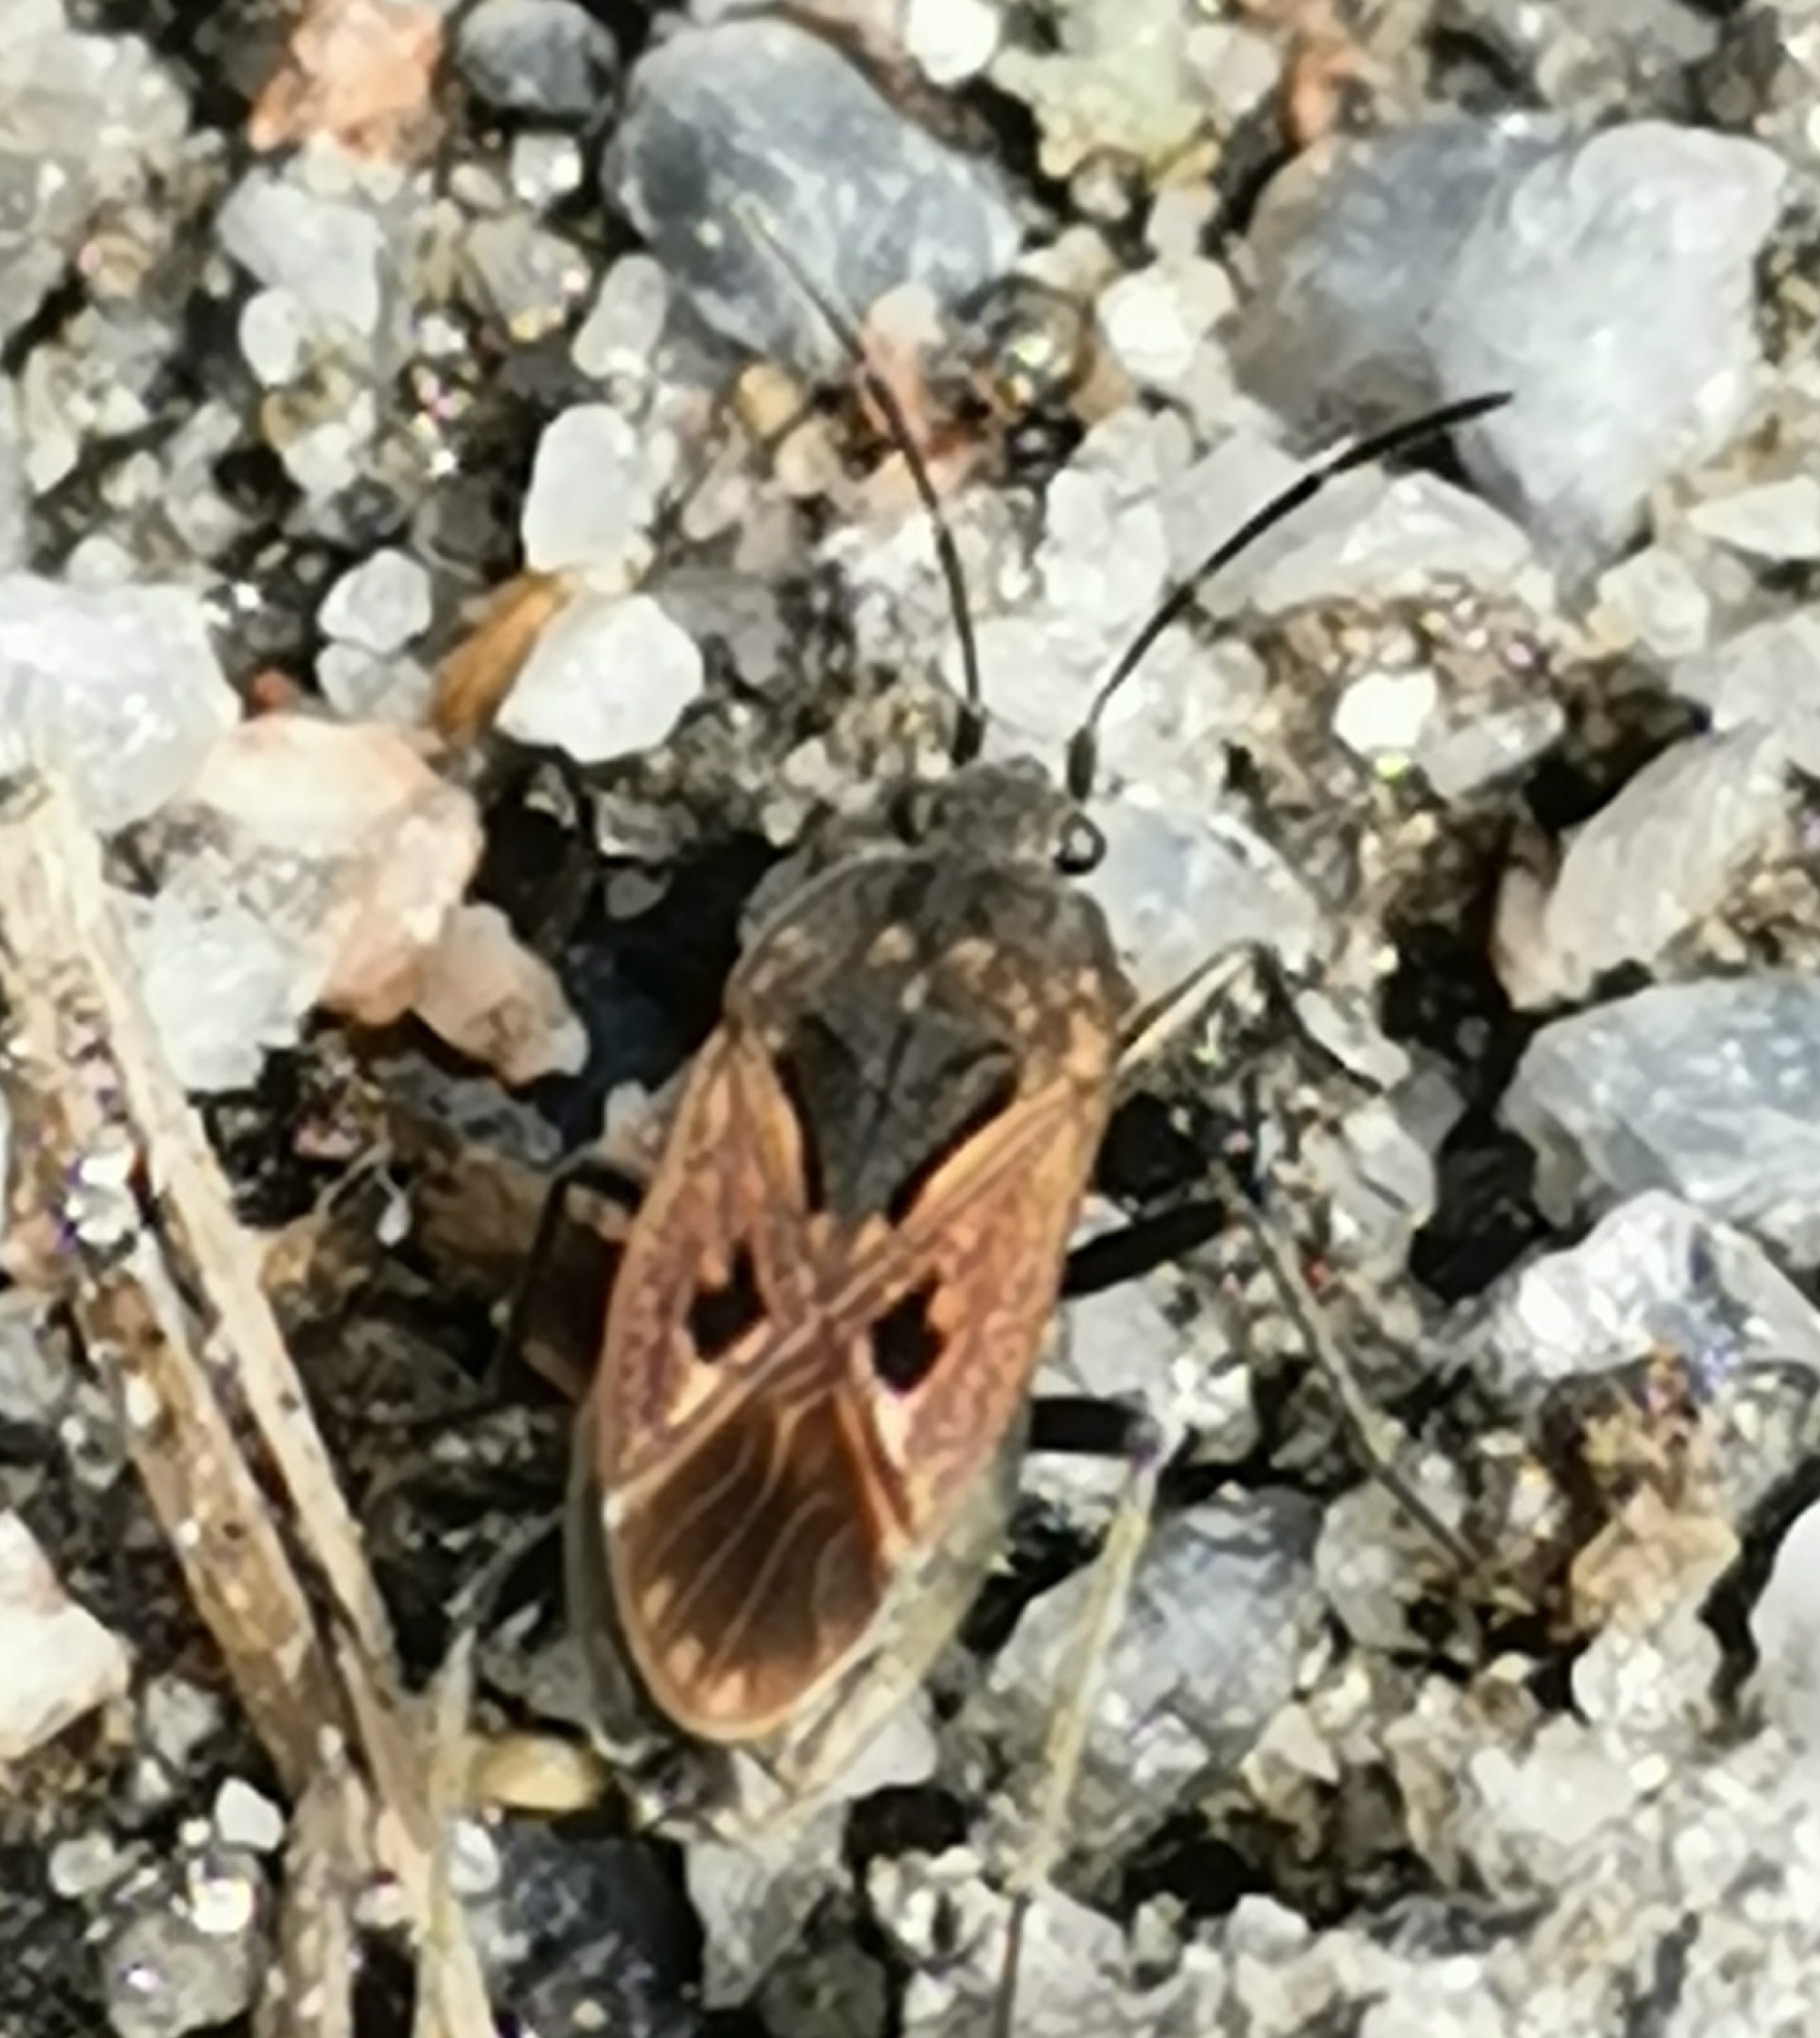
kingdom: Animalia
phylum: Arthropoda
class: Insecta
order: Hemiptera
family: Rhyparochromidae
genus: Rhyparochromus
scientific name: Rhyparochromus pini
